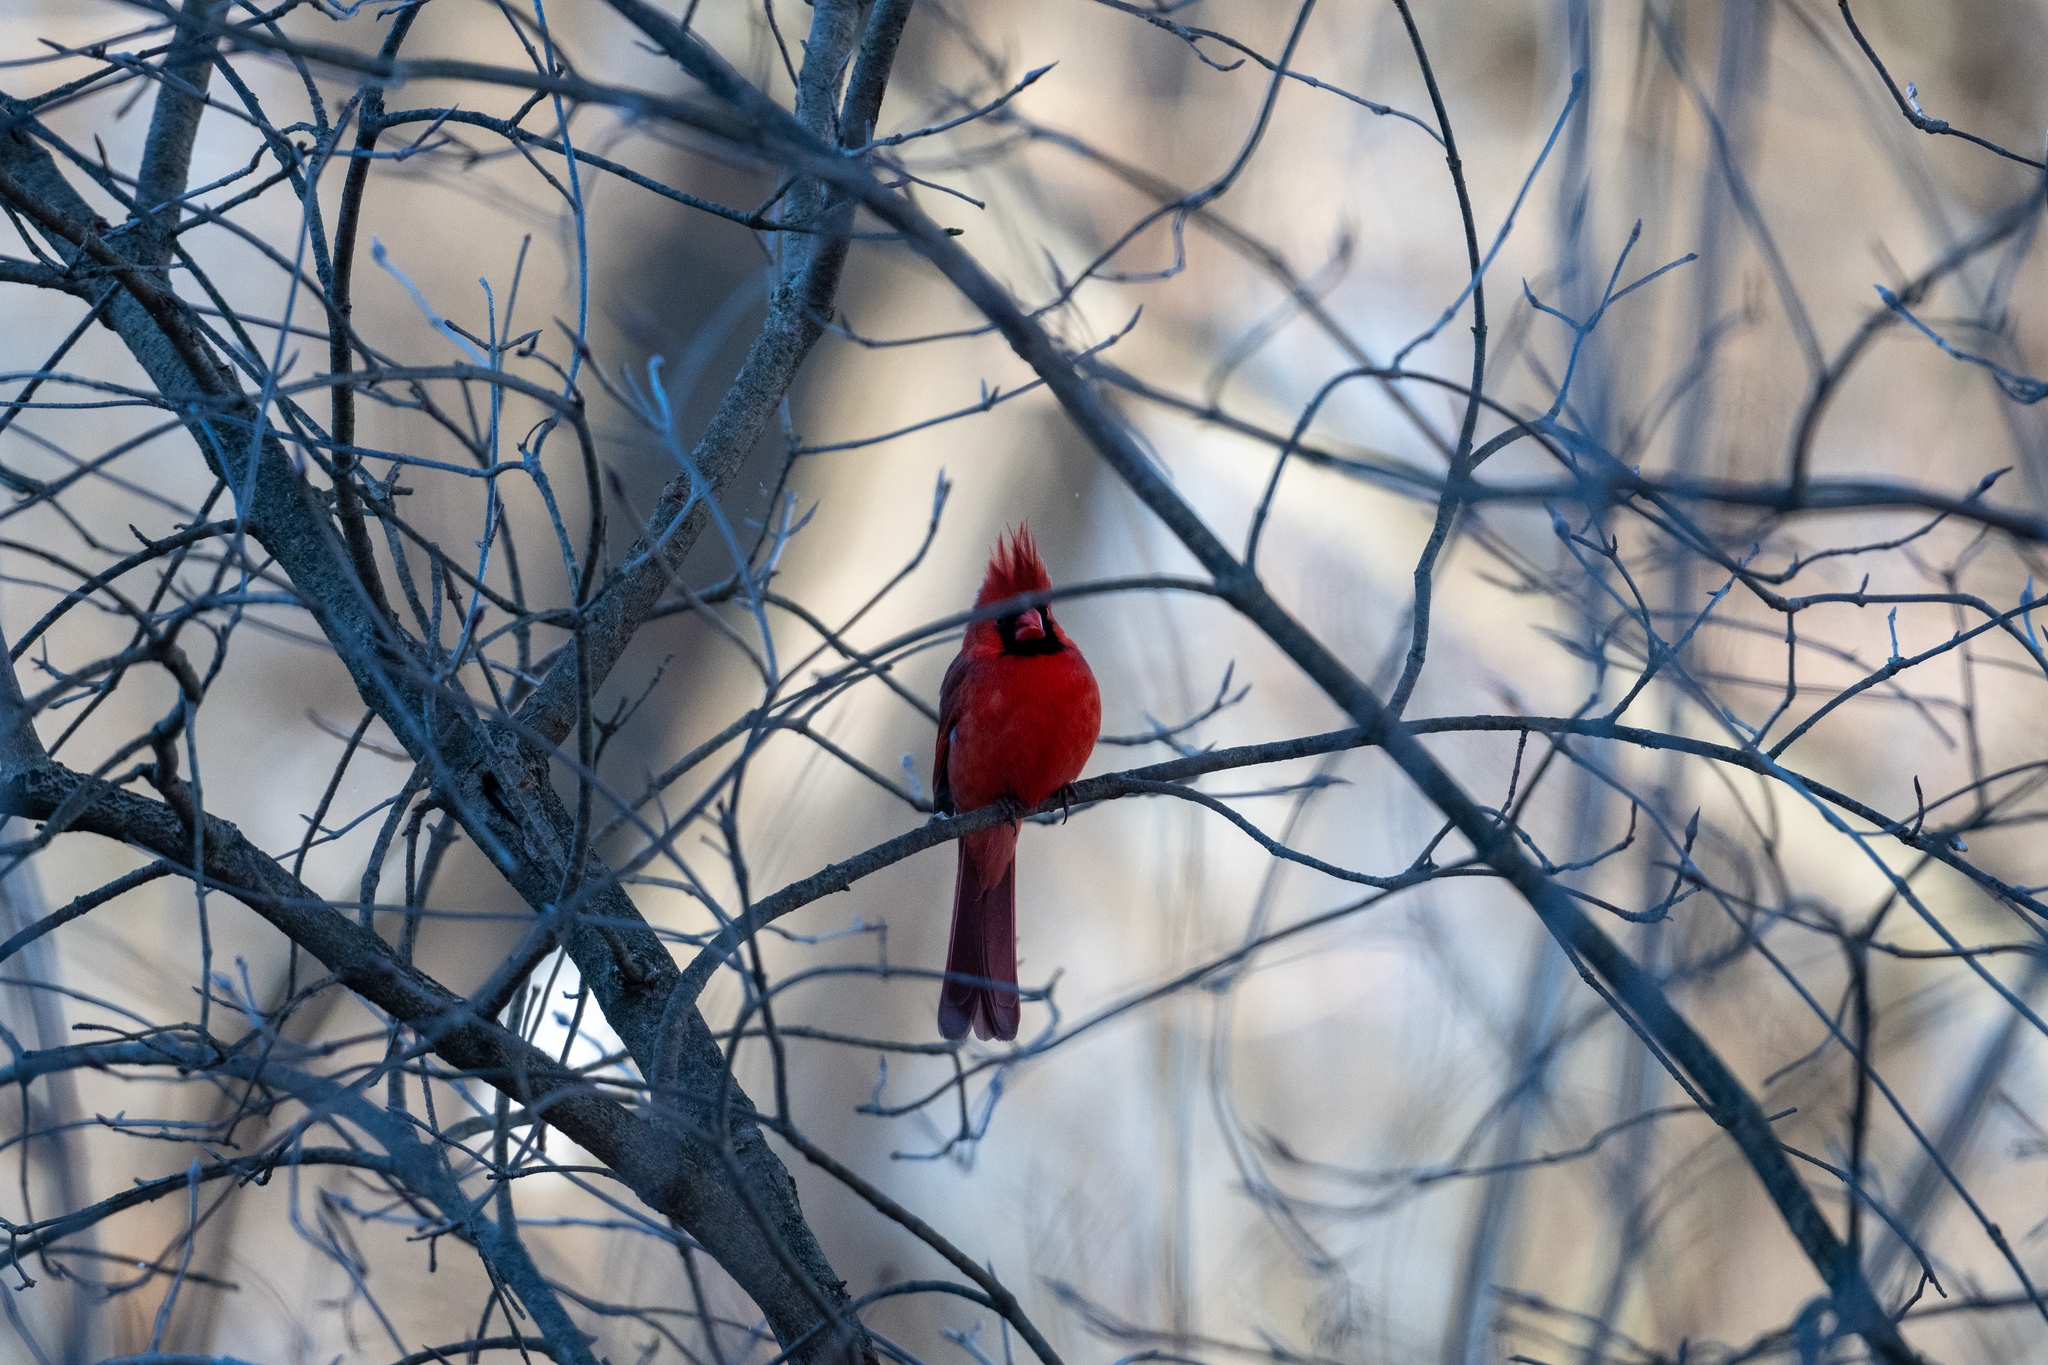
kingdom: Animalia
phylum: Chordata
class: Aves
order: Passeriformes
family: Cardinalidae
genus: Cardinalis
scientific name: Cardinalis cardinalis
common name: Northern cardinal
